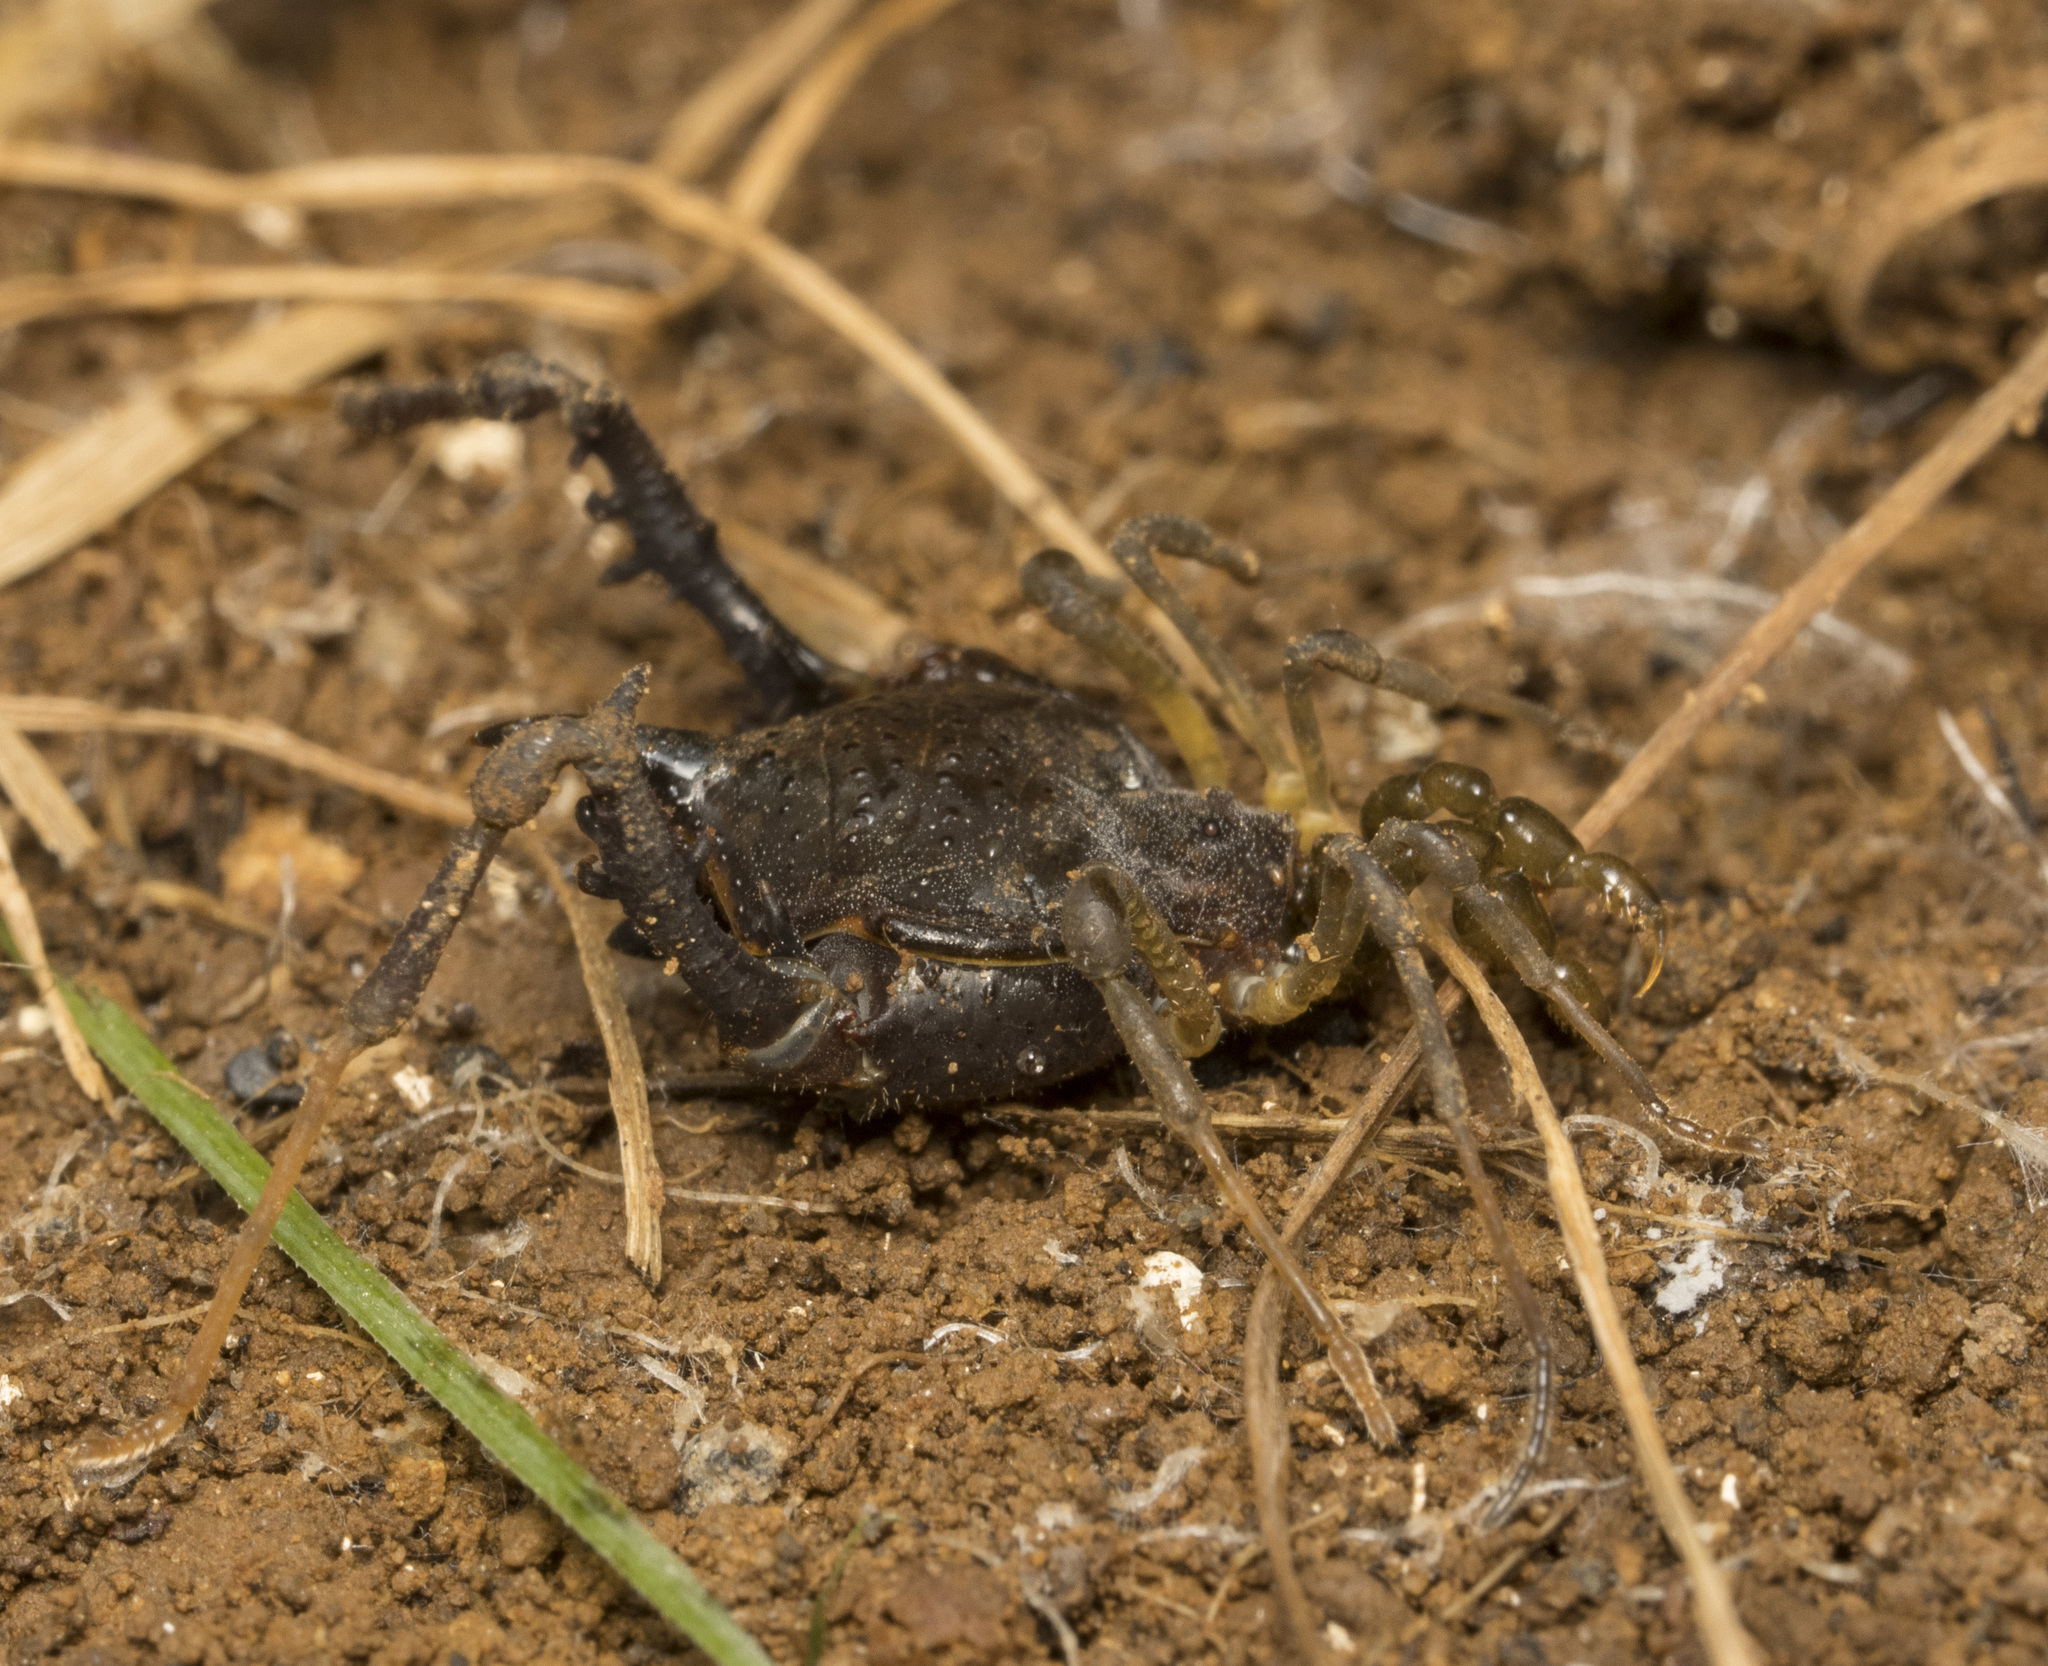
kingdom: Animalia
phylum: Arthropoda
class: Arachnida
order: Opiliones
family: Gonyleptidae
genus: Acanthoprocta
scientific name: Acanthoprocta pustulata
